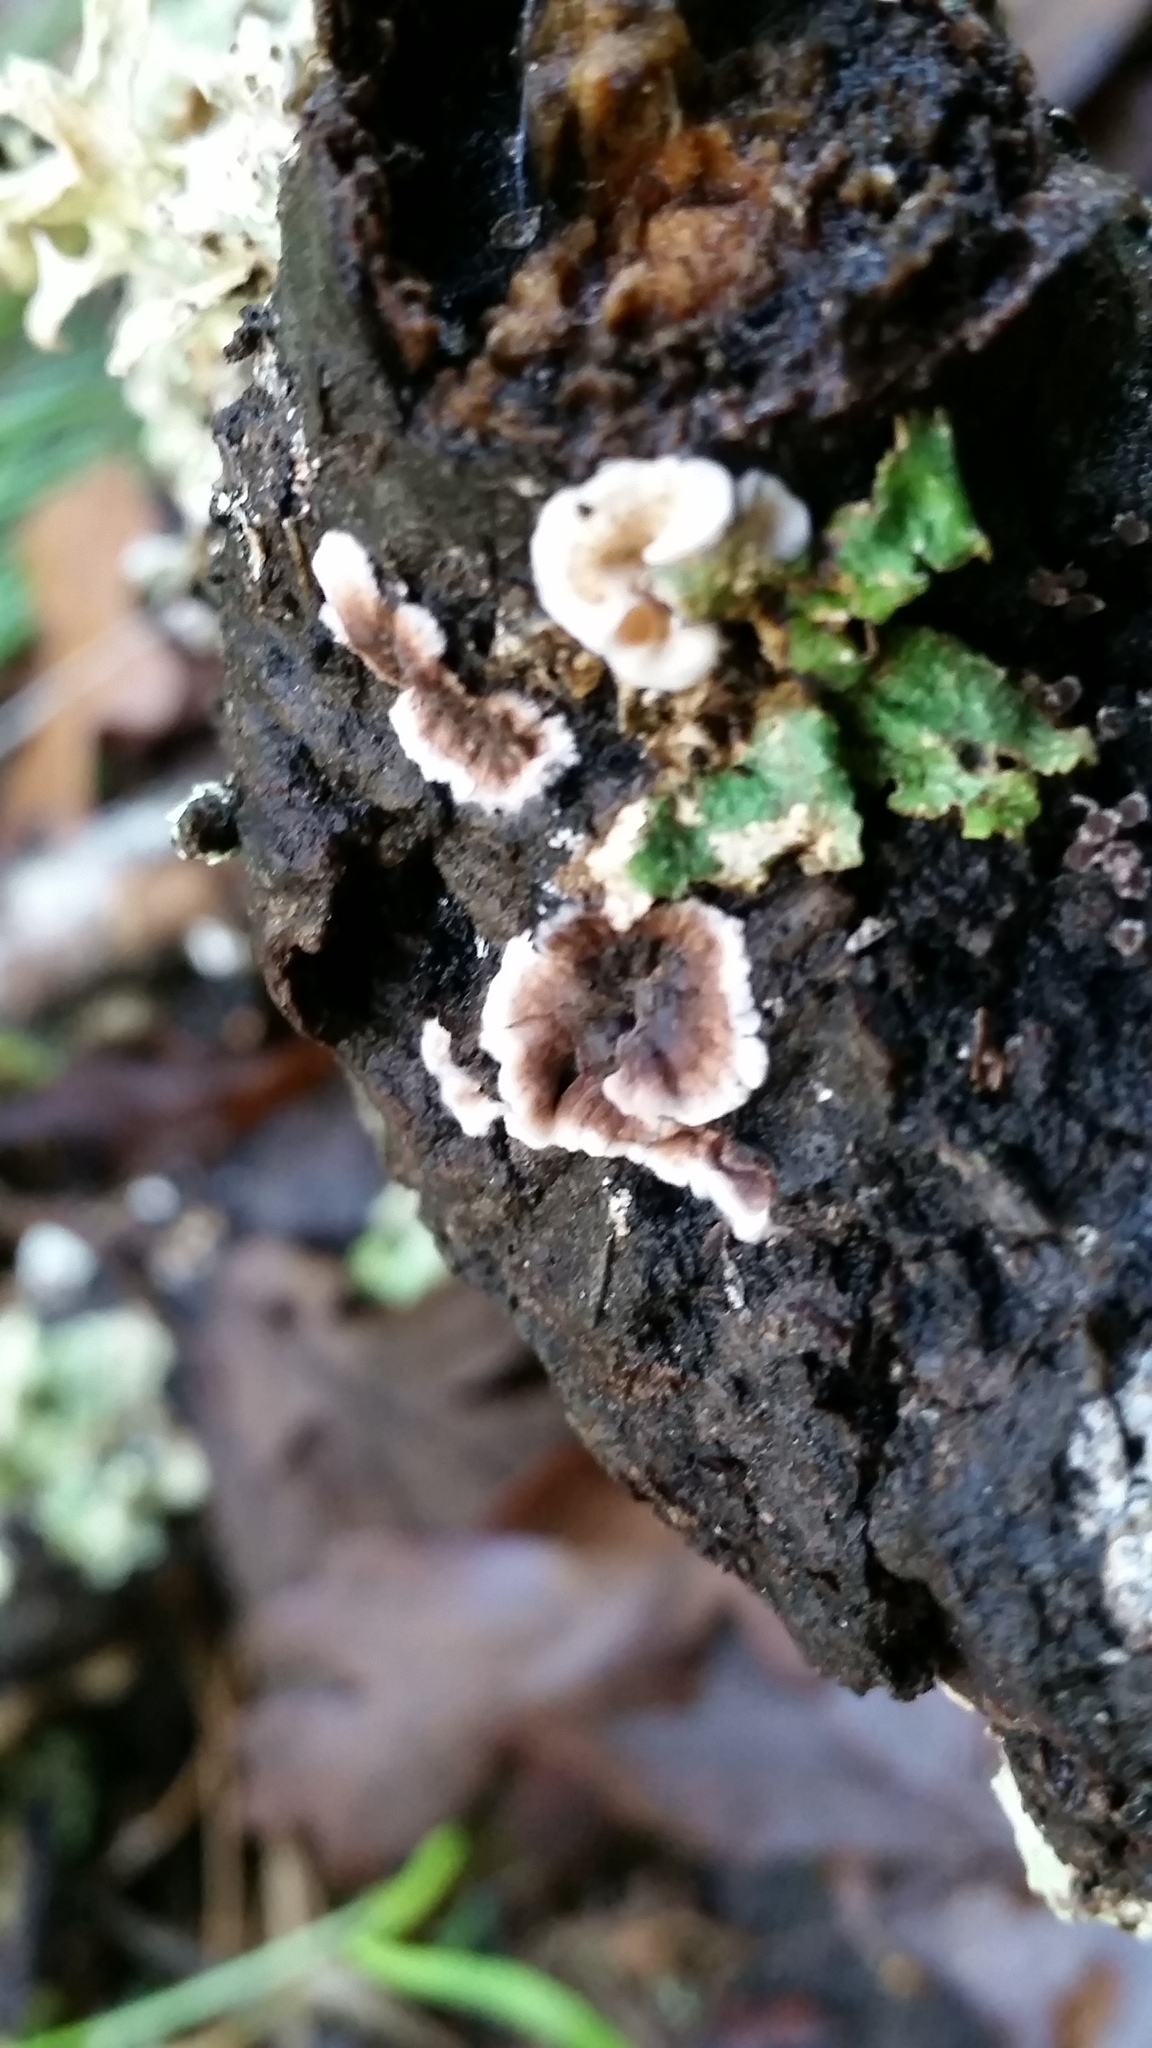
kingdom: Fungi
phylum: Basidiomycota
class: Agaricomycetes
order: Russulales
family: Peniophoraceae
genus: Peniophora
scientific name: Peniophora albobadia
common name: Giraffe spots
